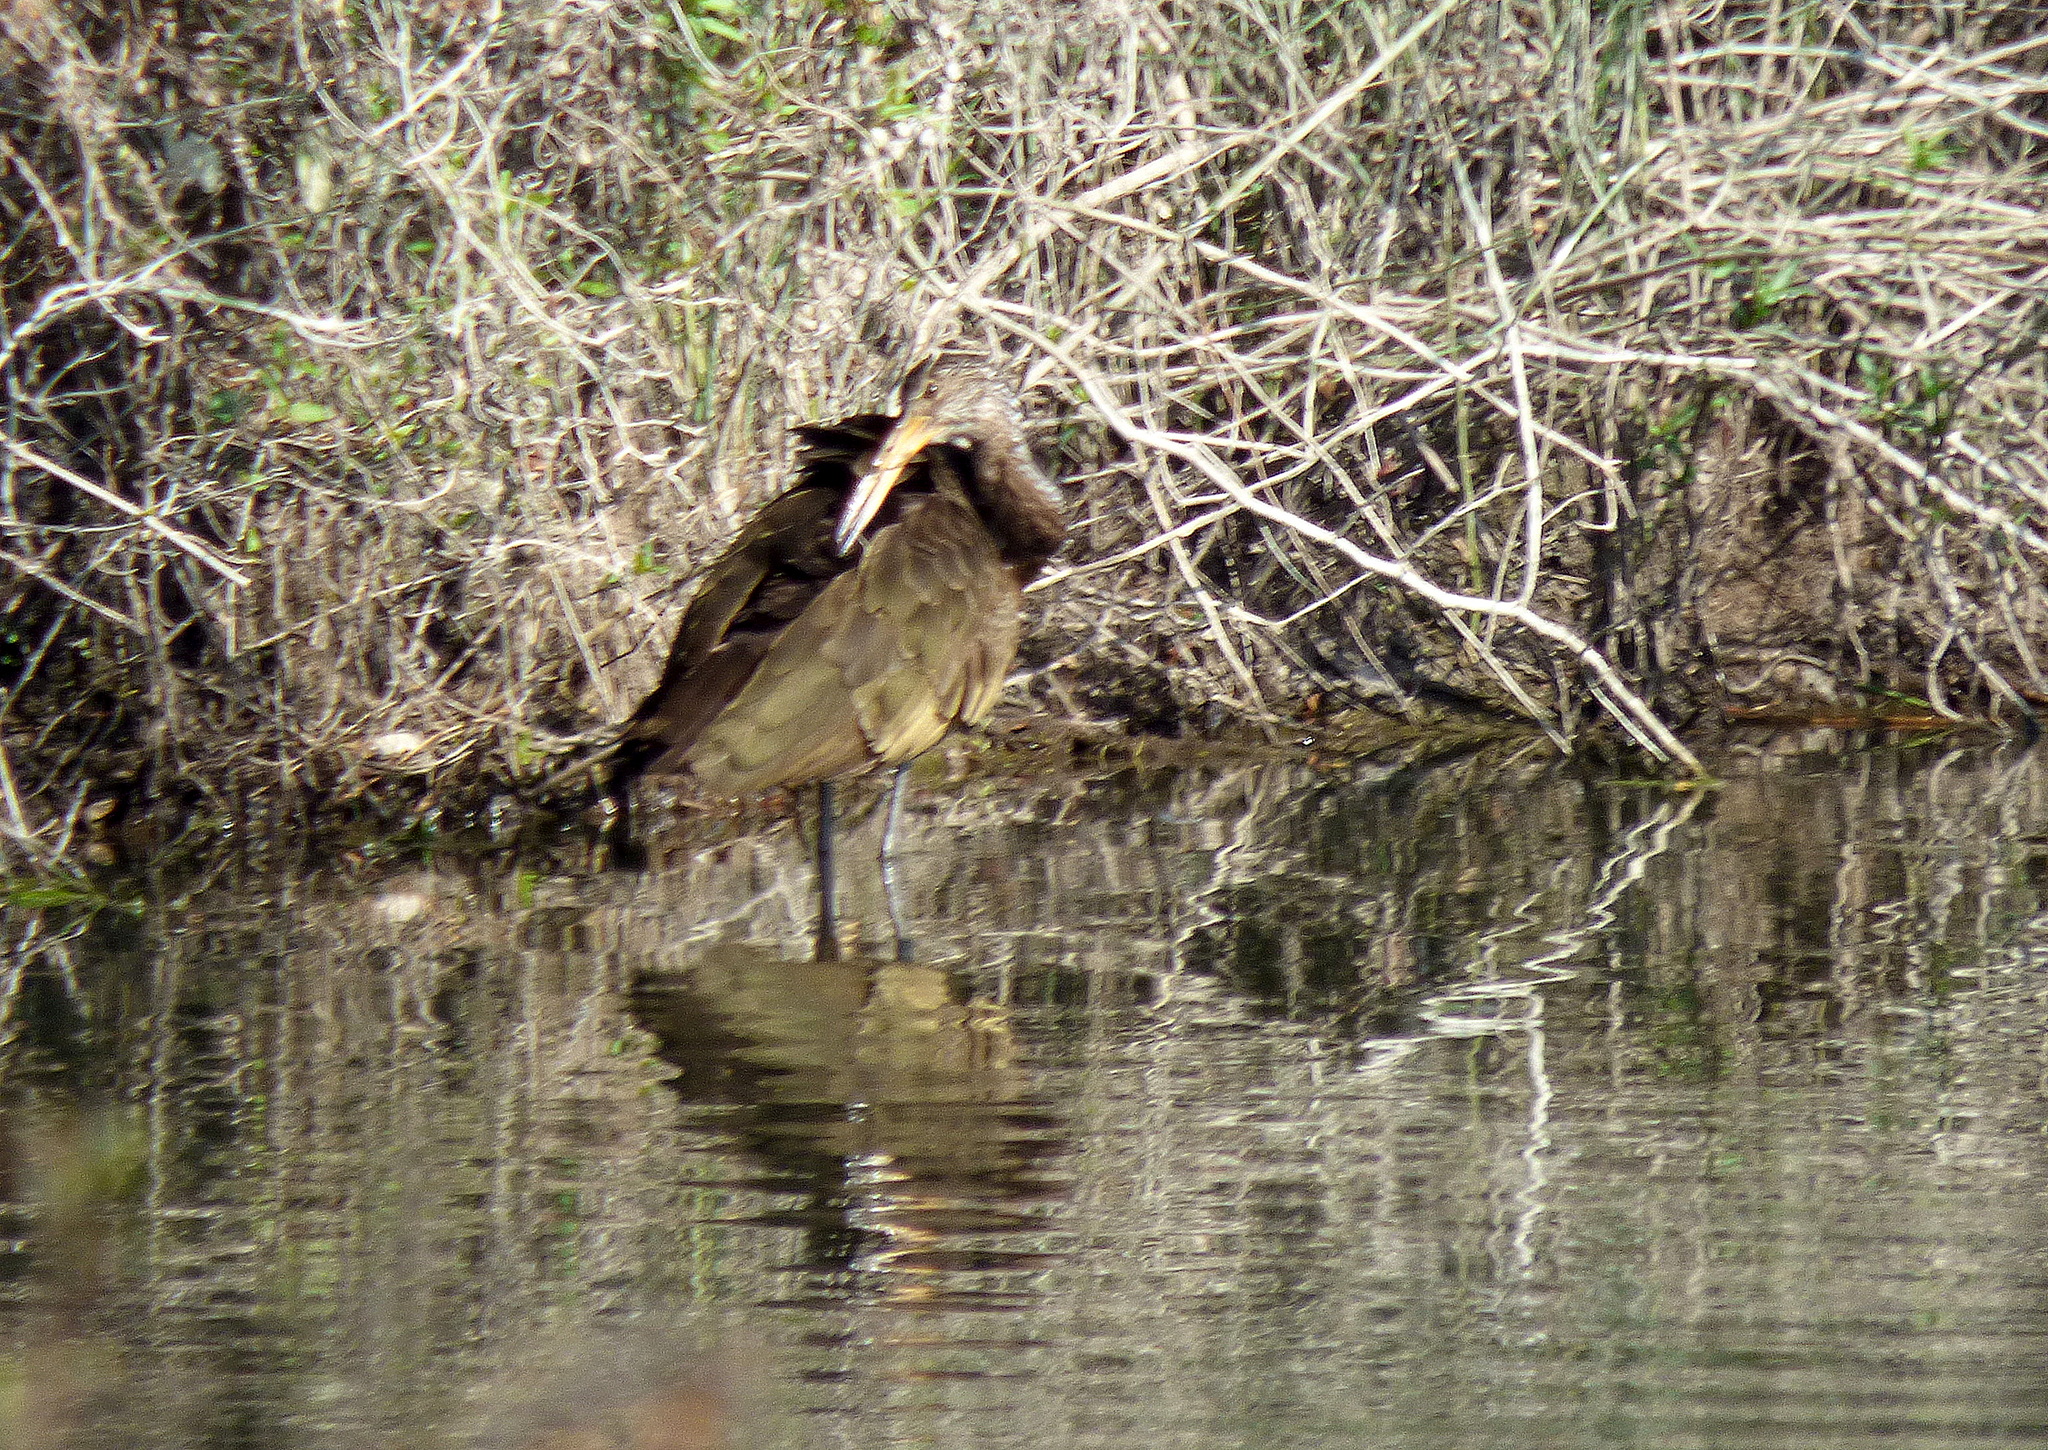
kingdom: Animalia
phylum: Chordata
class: Aves
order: Gruiformes
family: Aramidae
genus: Aramus
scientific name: Aramus guarauna
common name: Limpkin
